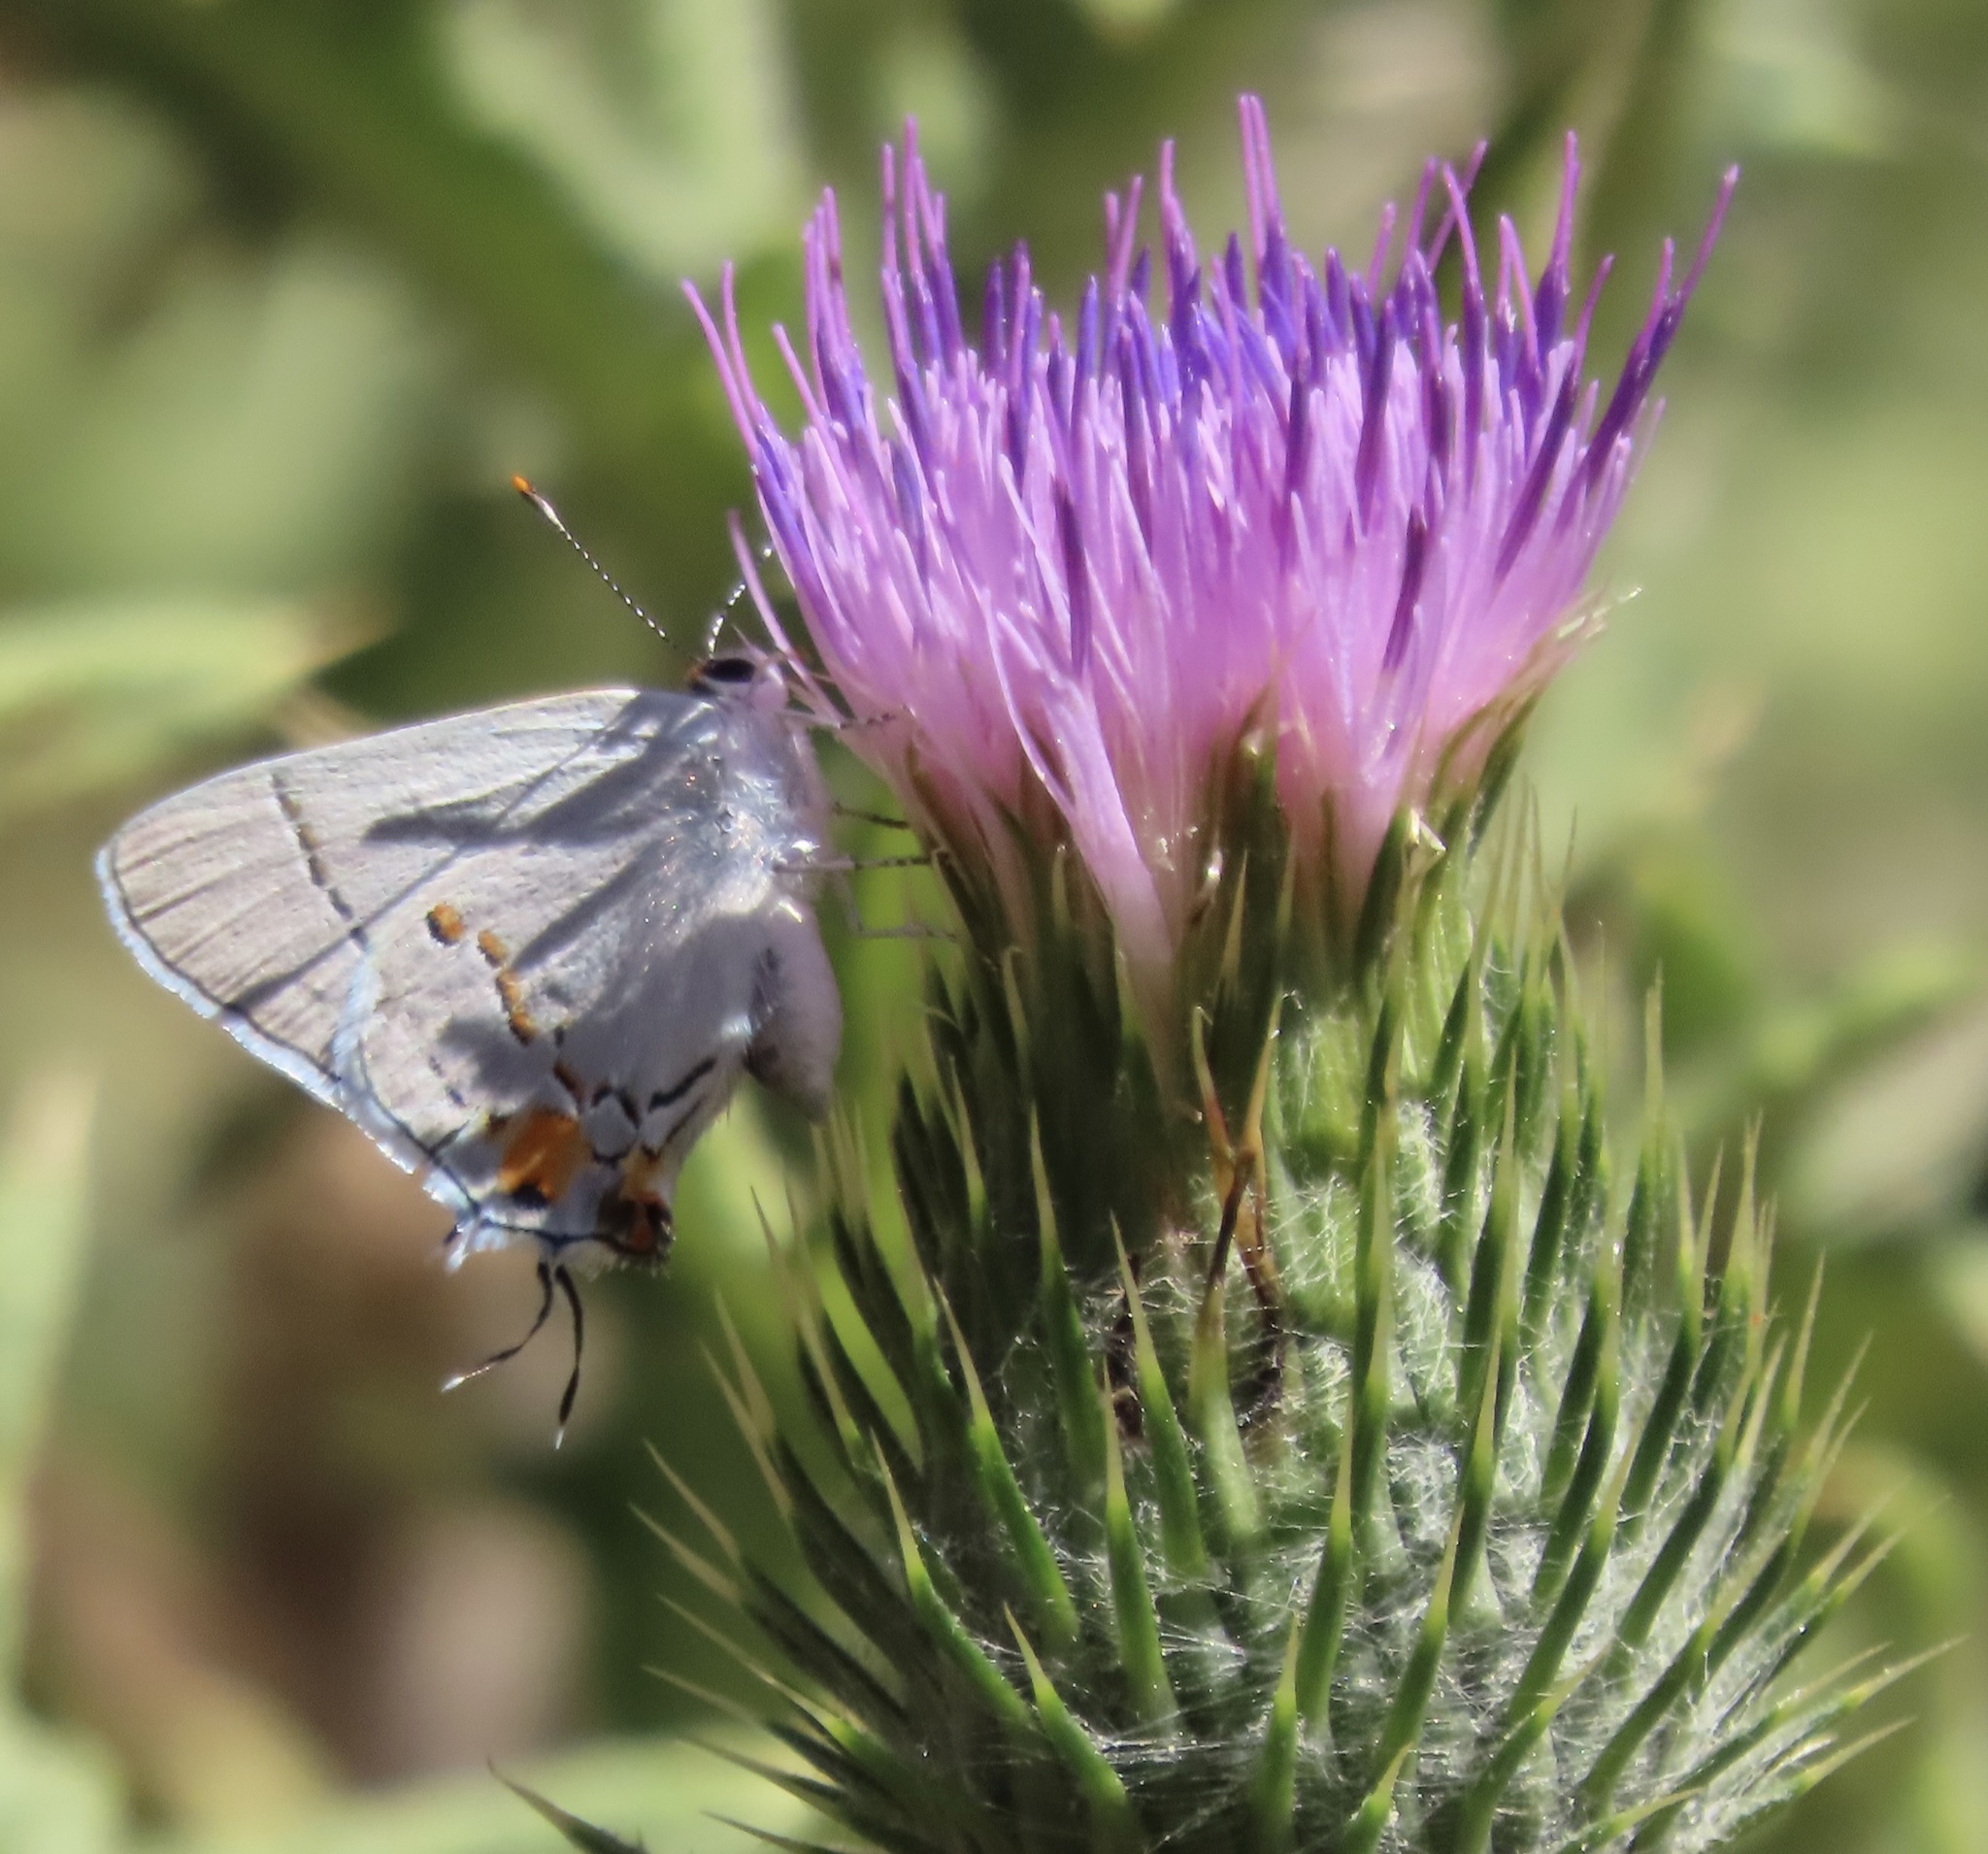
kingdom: Animalia
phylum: Arthropoda
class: Insecta
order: Lepidoptera
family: Lycaenidae
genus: Strymon
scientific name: Strymon melinus
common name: Gray hairstreak
